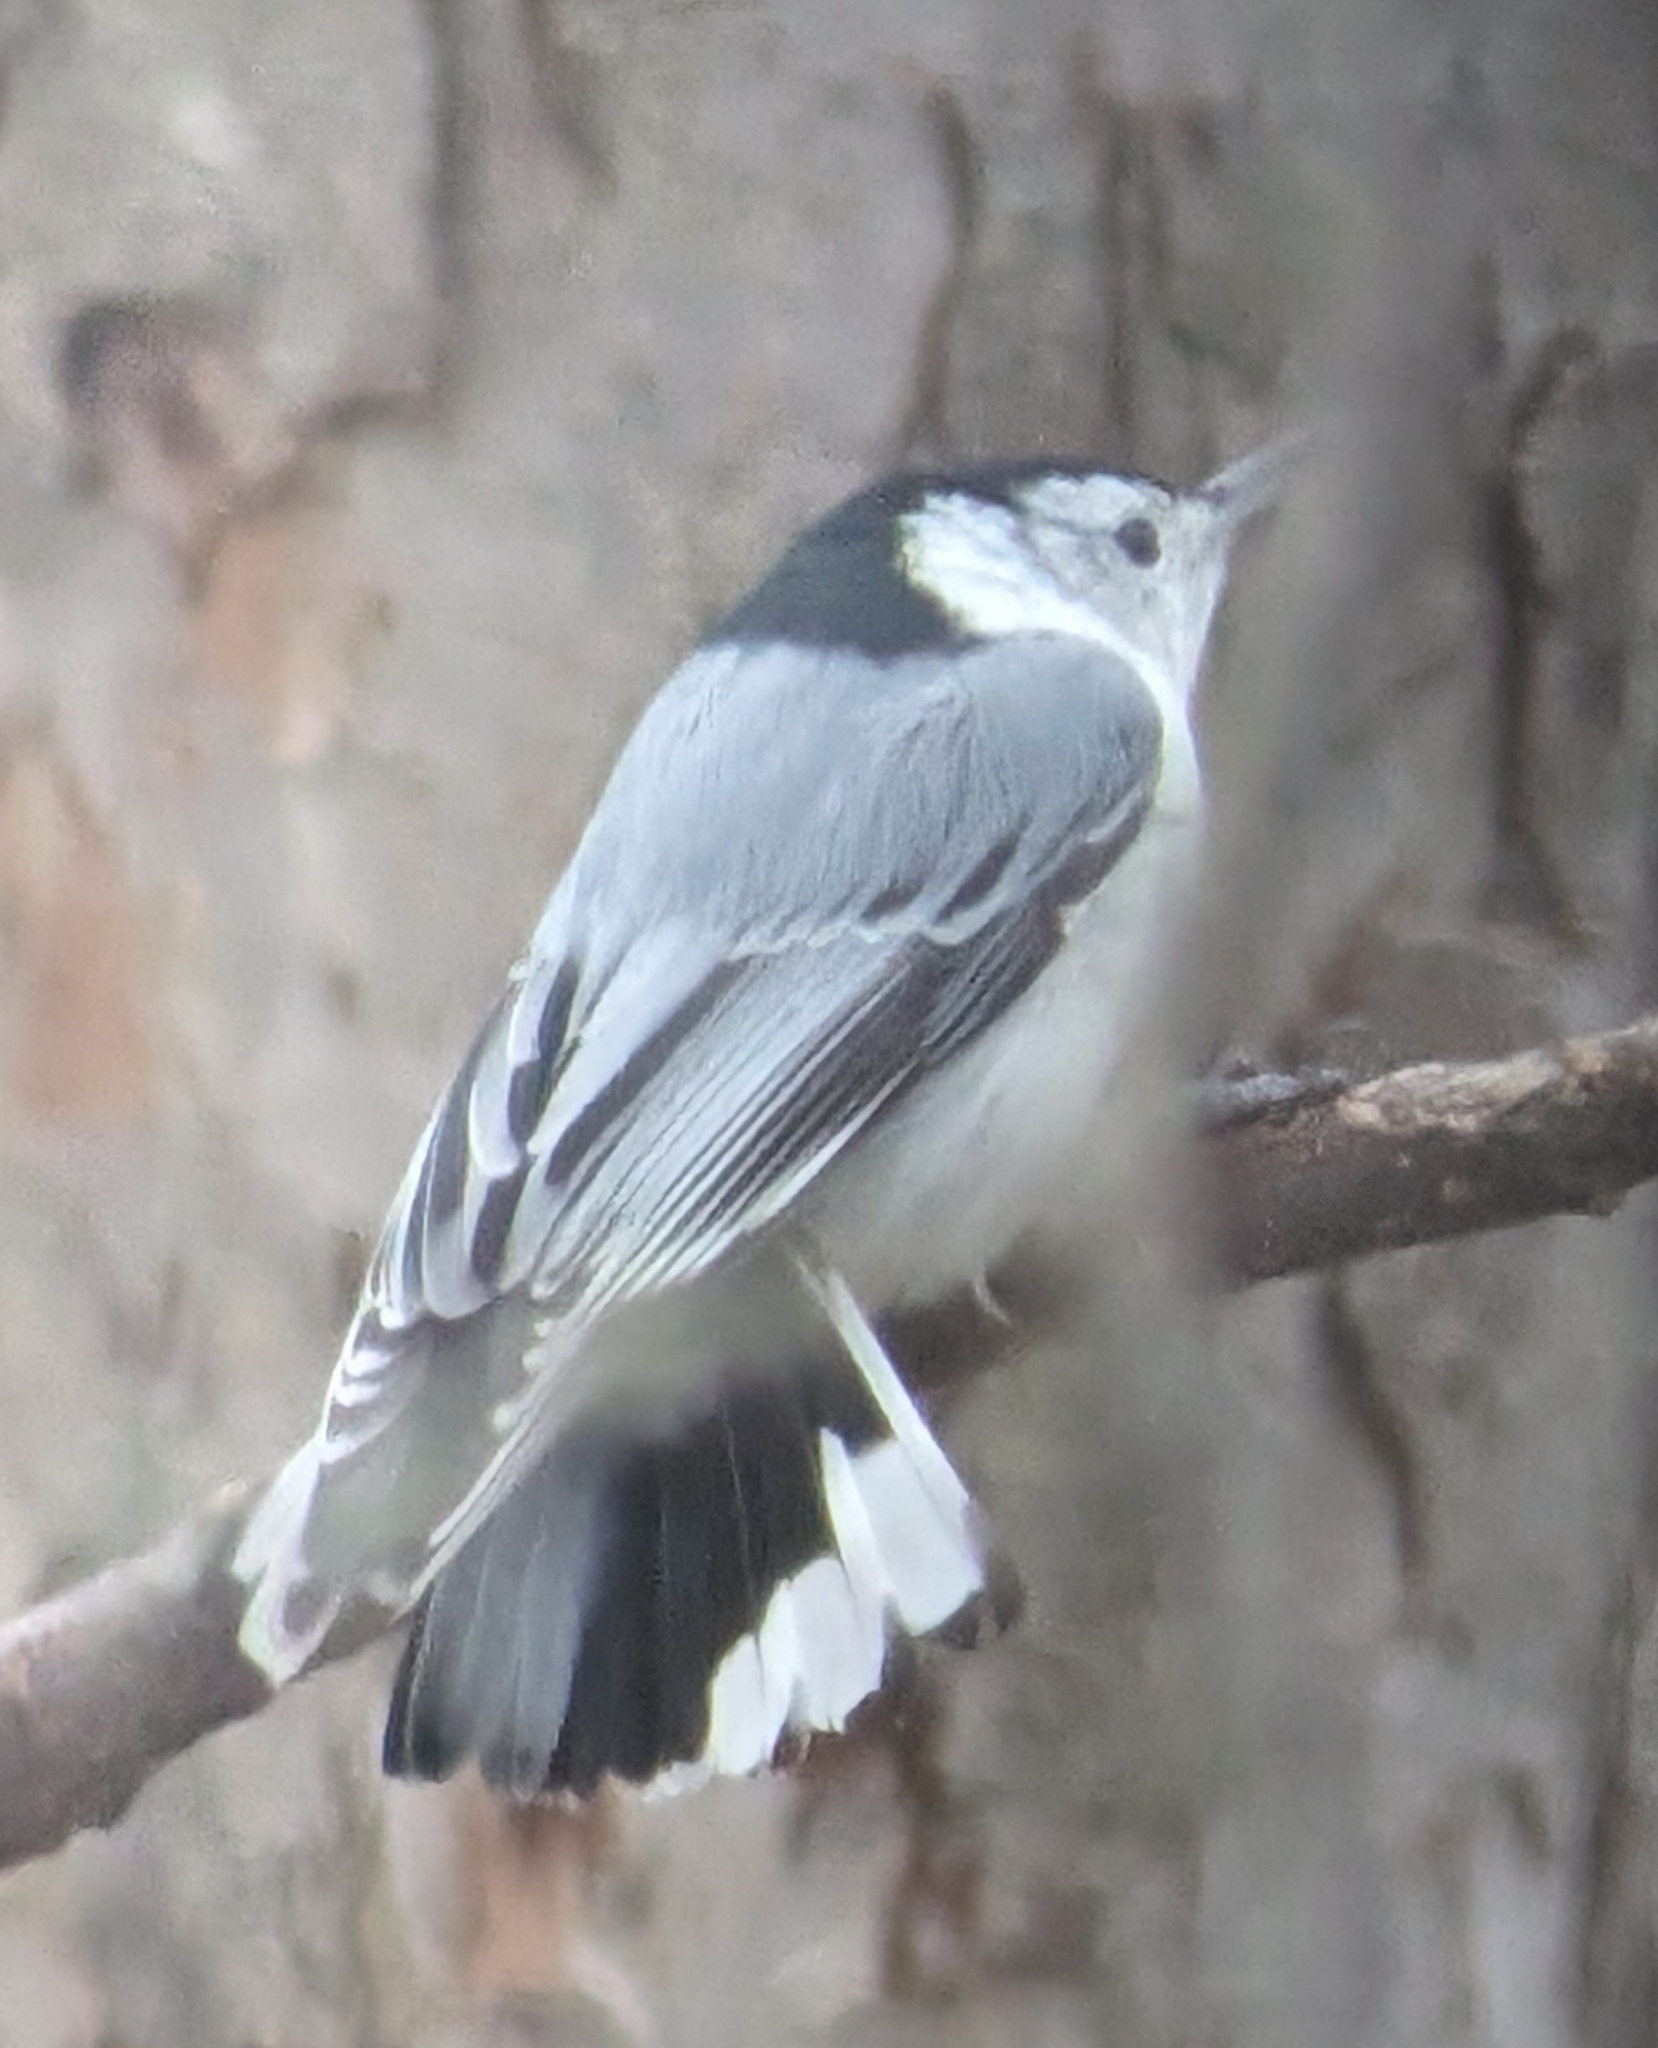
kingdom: Animalia
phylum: Chordata
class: Aves
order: Passeriformes
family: Sittidae
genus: Sitta
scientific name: Sitta carolinensis
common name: White-breasted nuthatch
